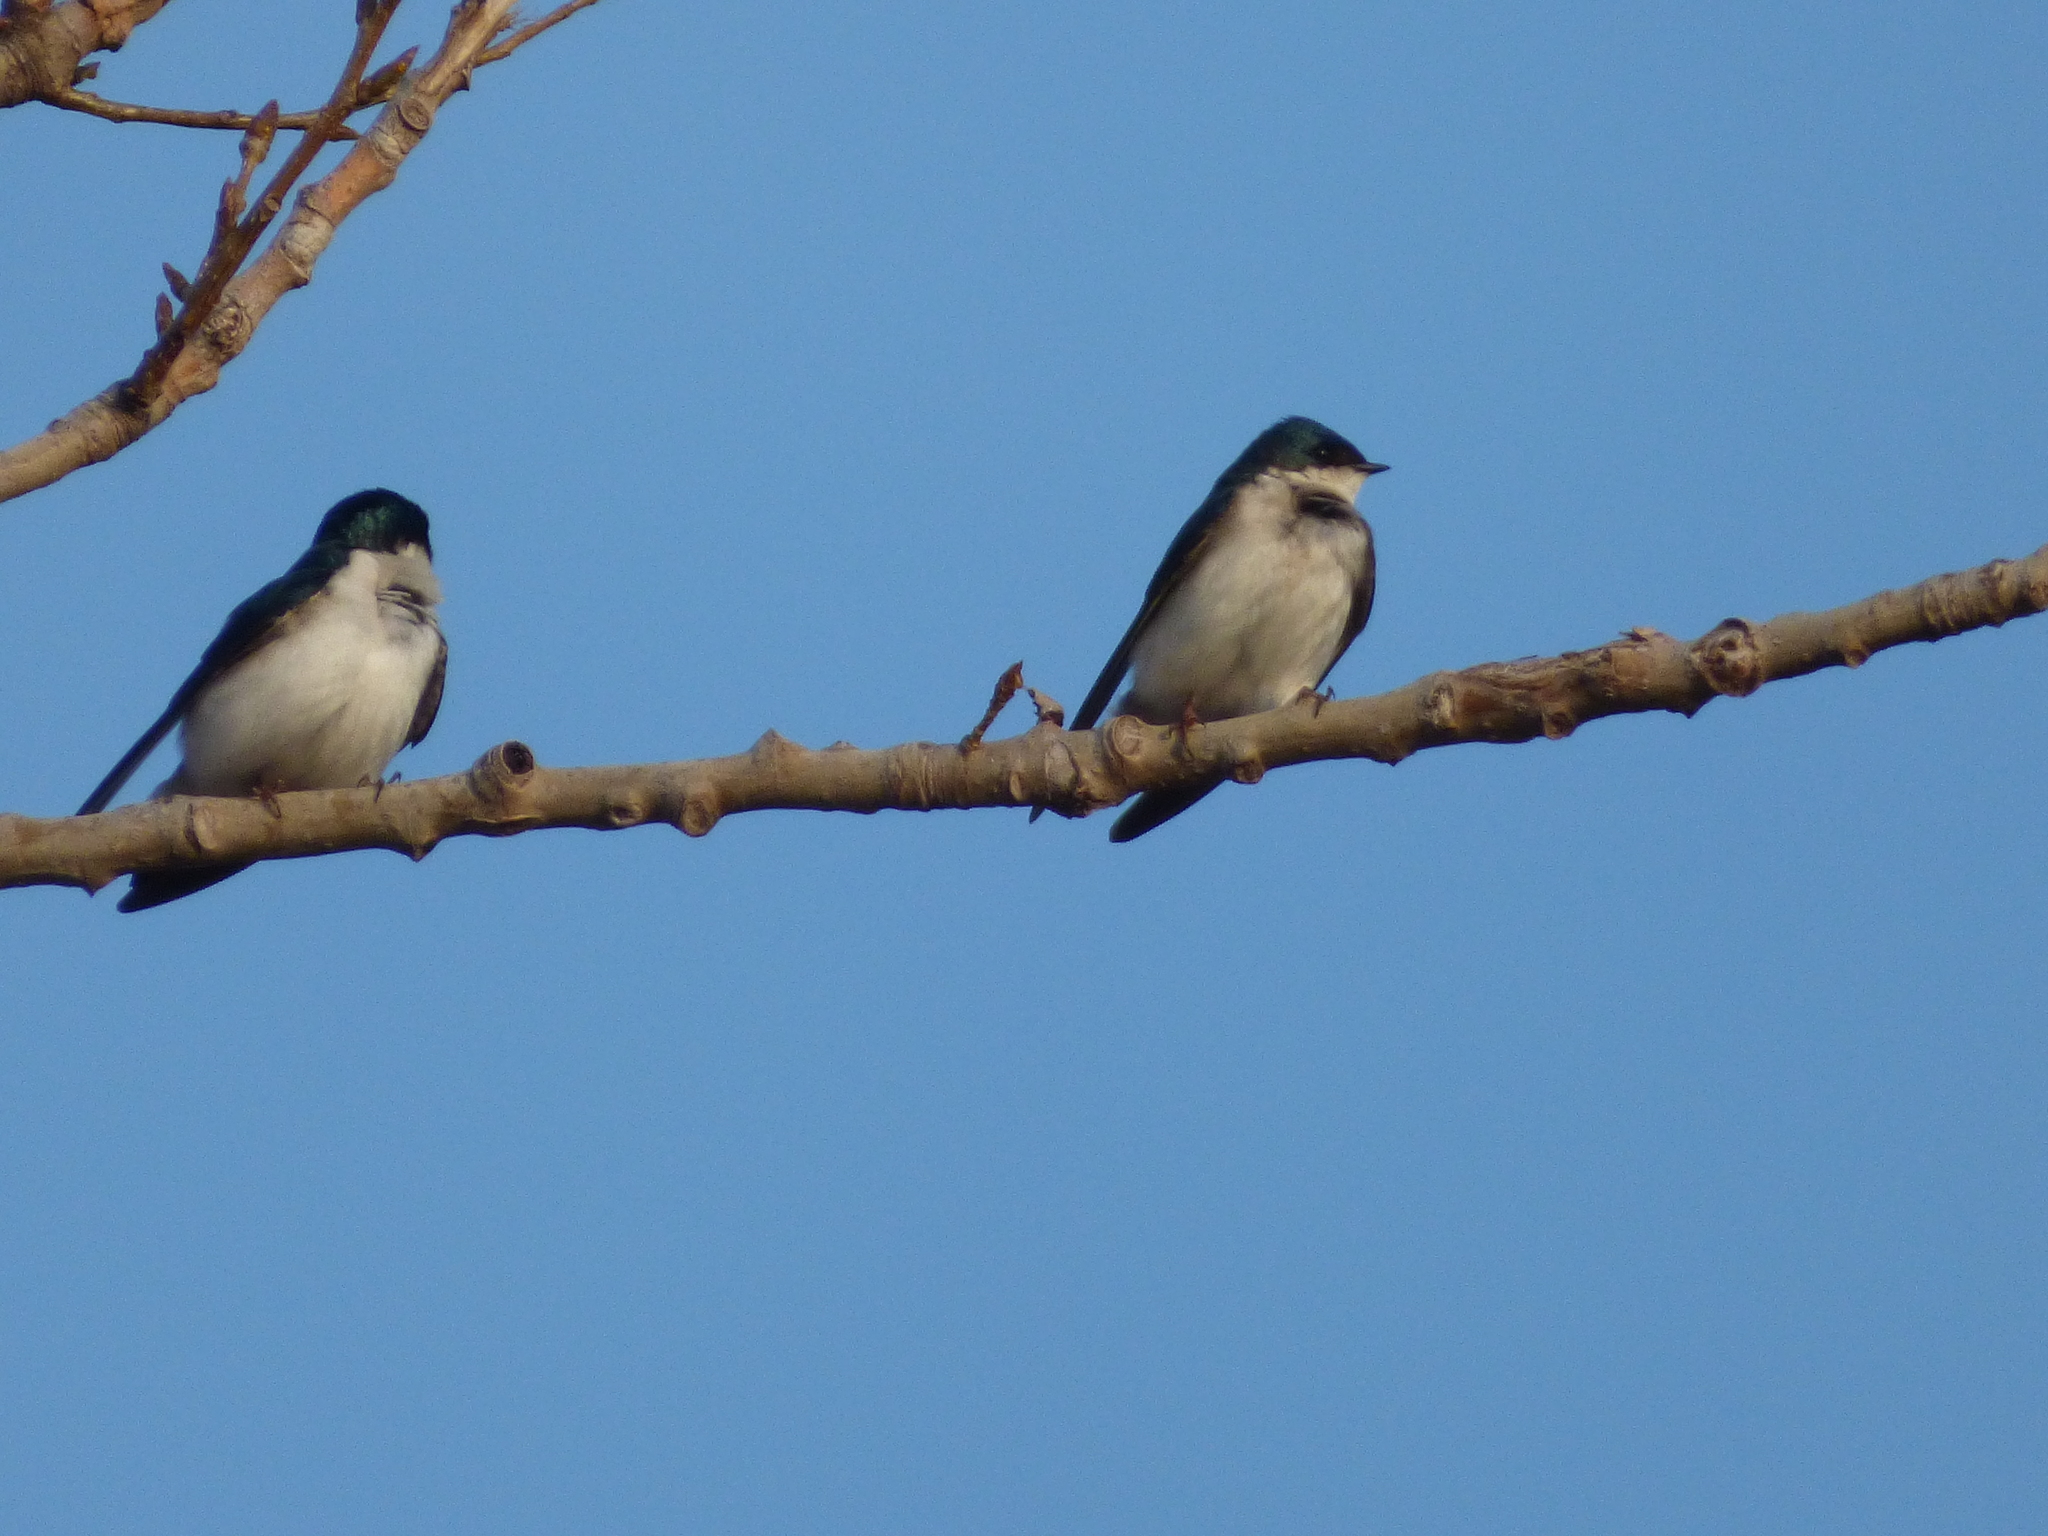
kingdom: Animalia
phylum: Chordata
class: Aves
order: Passeriformes
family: Hirundinidae
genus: Tachycineta
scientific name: Tachycineta bicolor
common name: Tree swallow
